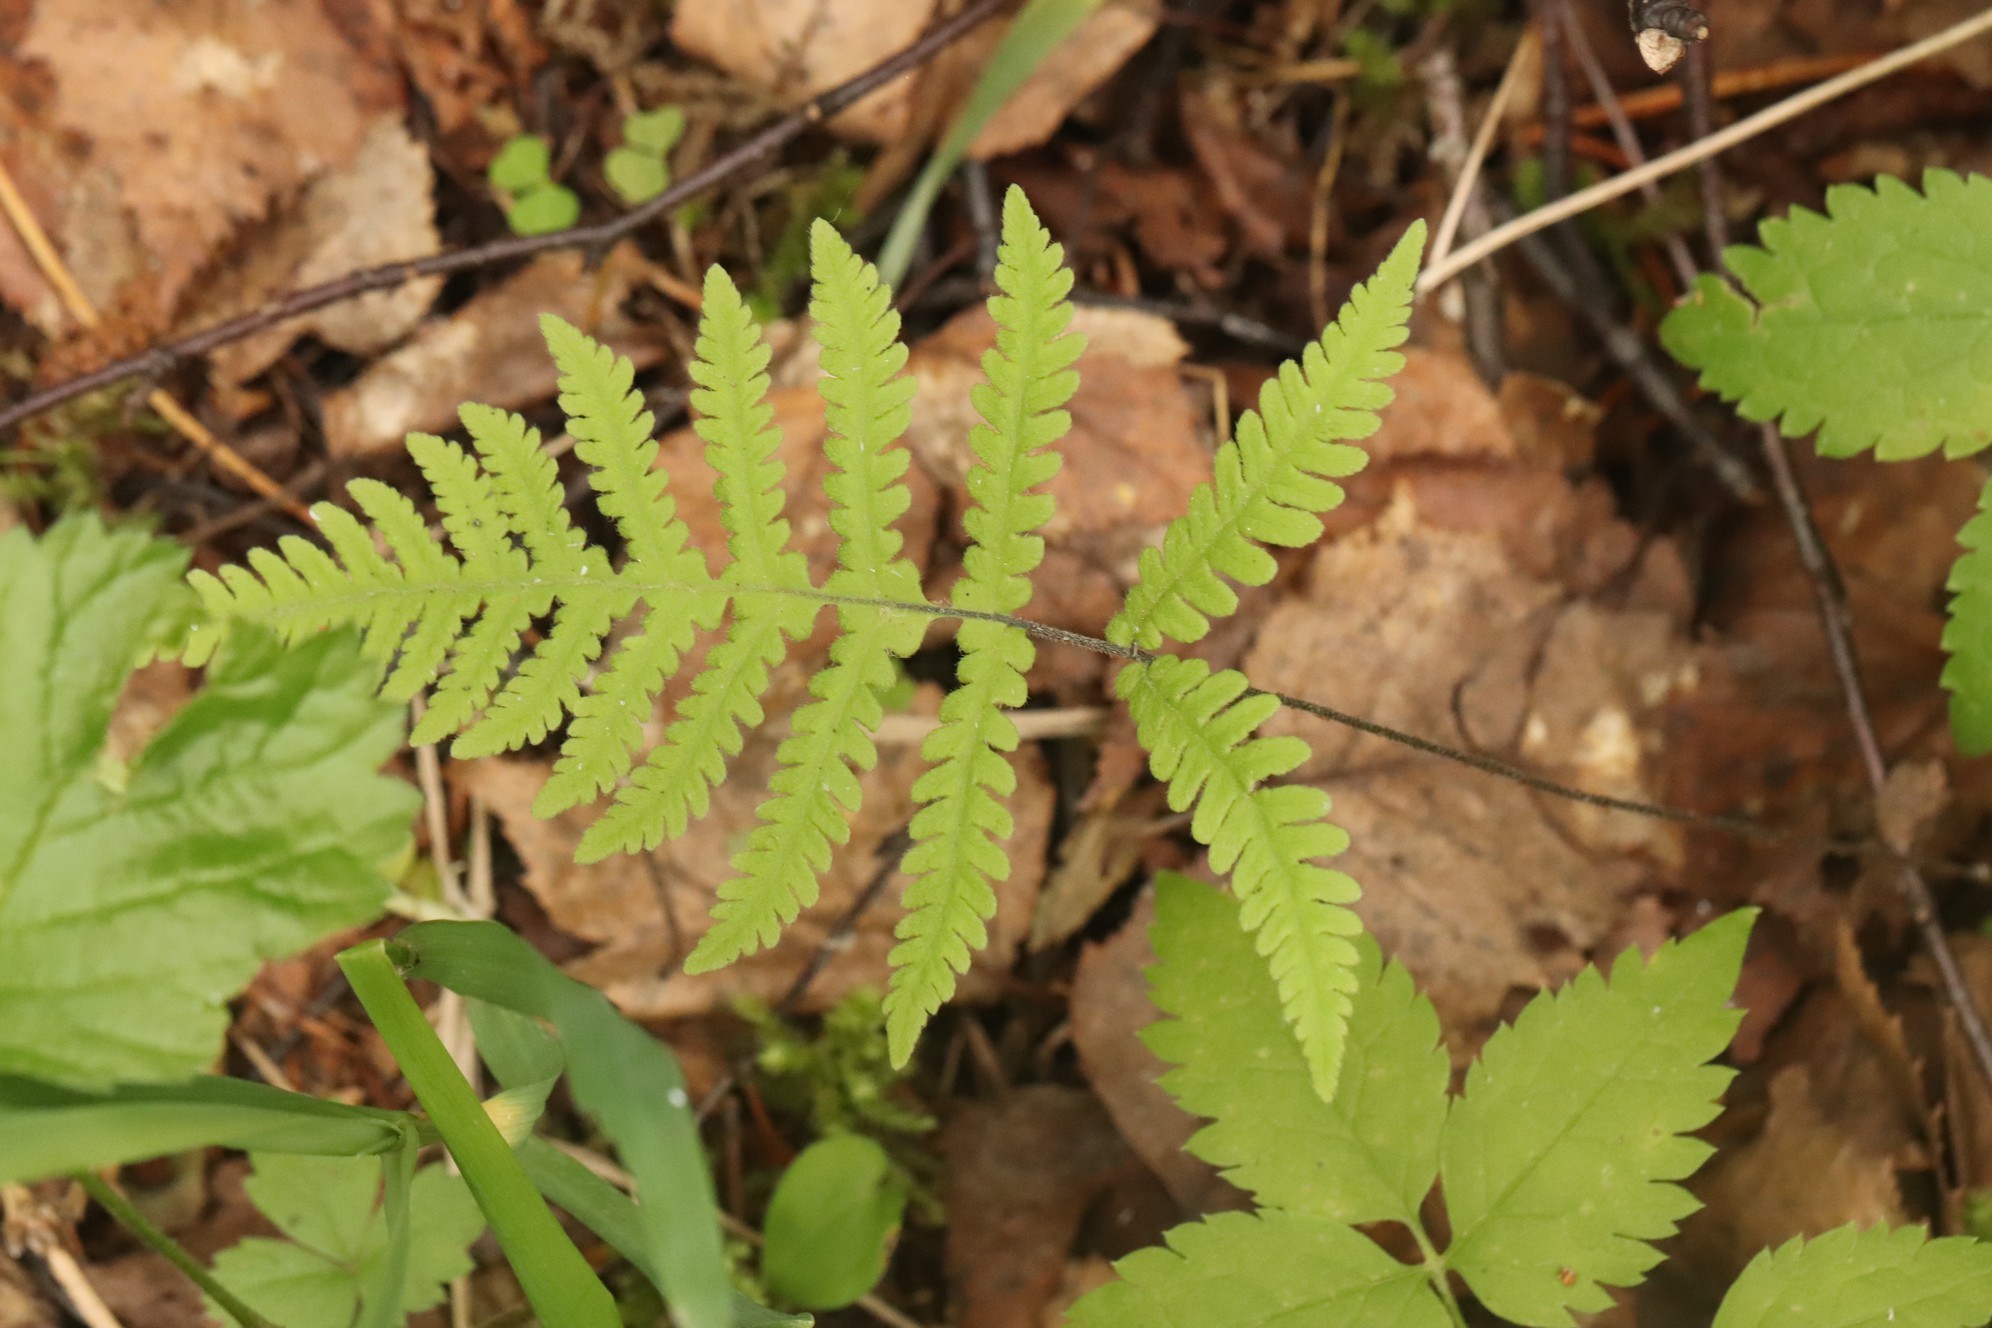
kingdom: Plantae
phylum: Tracheophyta
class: Polypodiopsida
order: Polypodiales
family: Thelypteridaceae
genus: Phegopteris
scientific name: Phegopteris connectilis
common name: Beech fern
